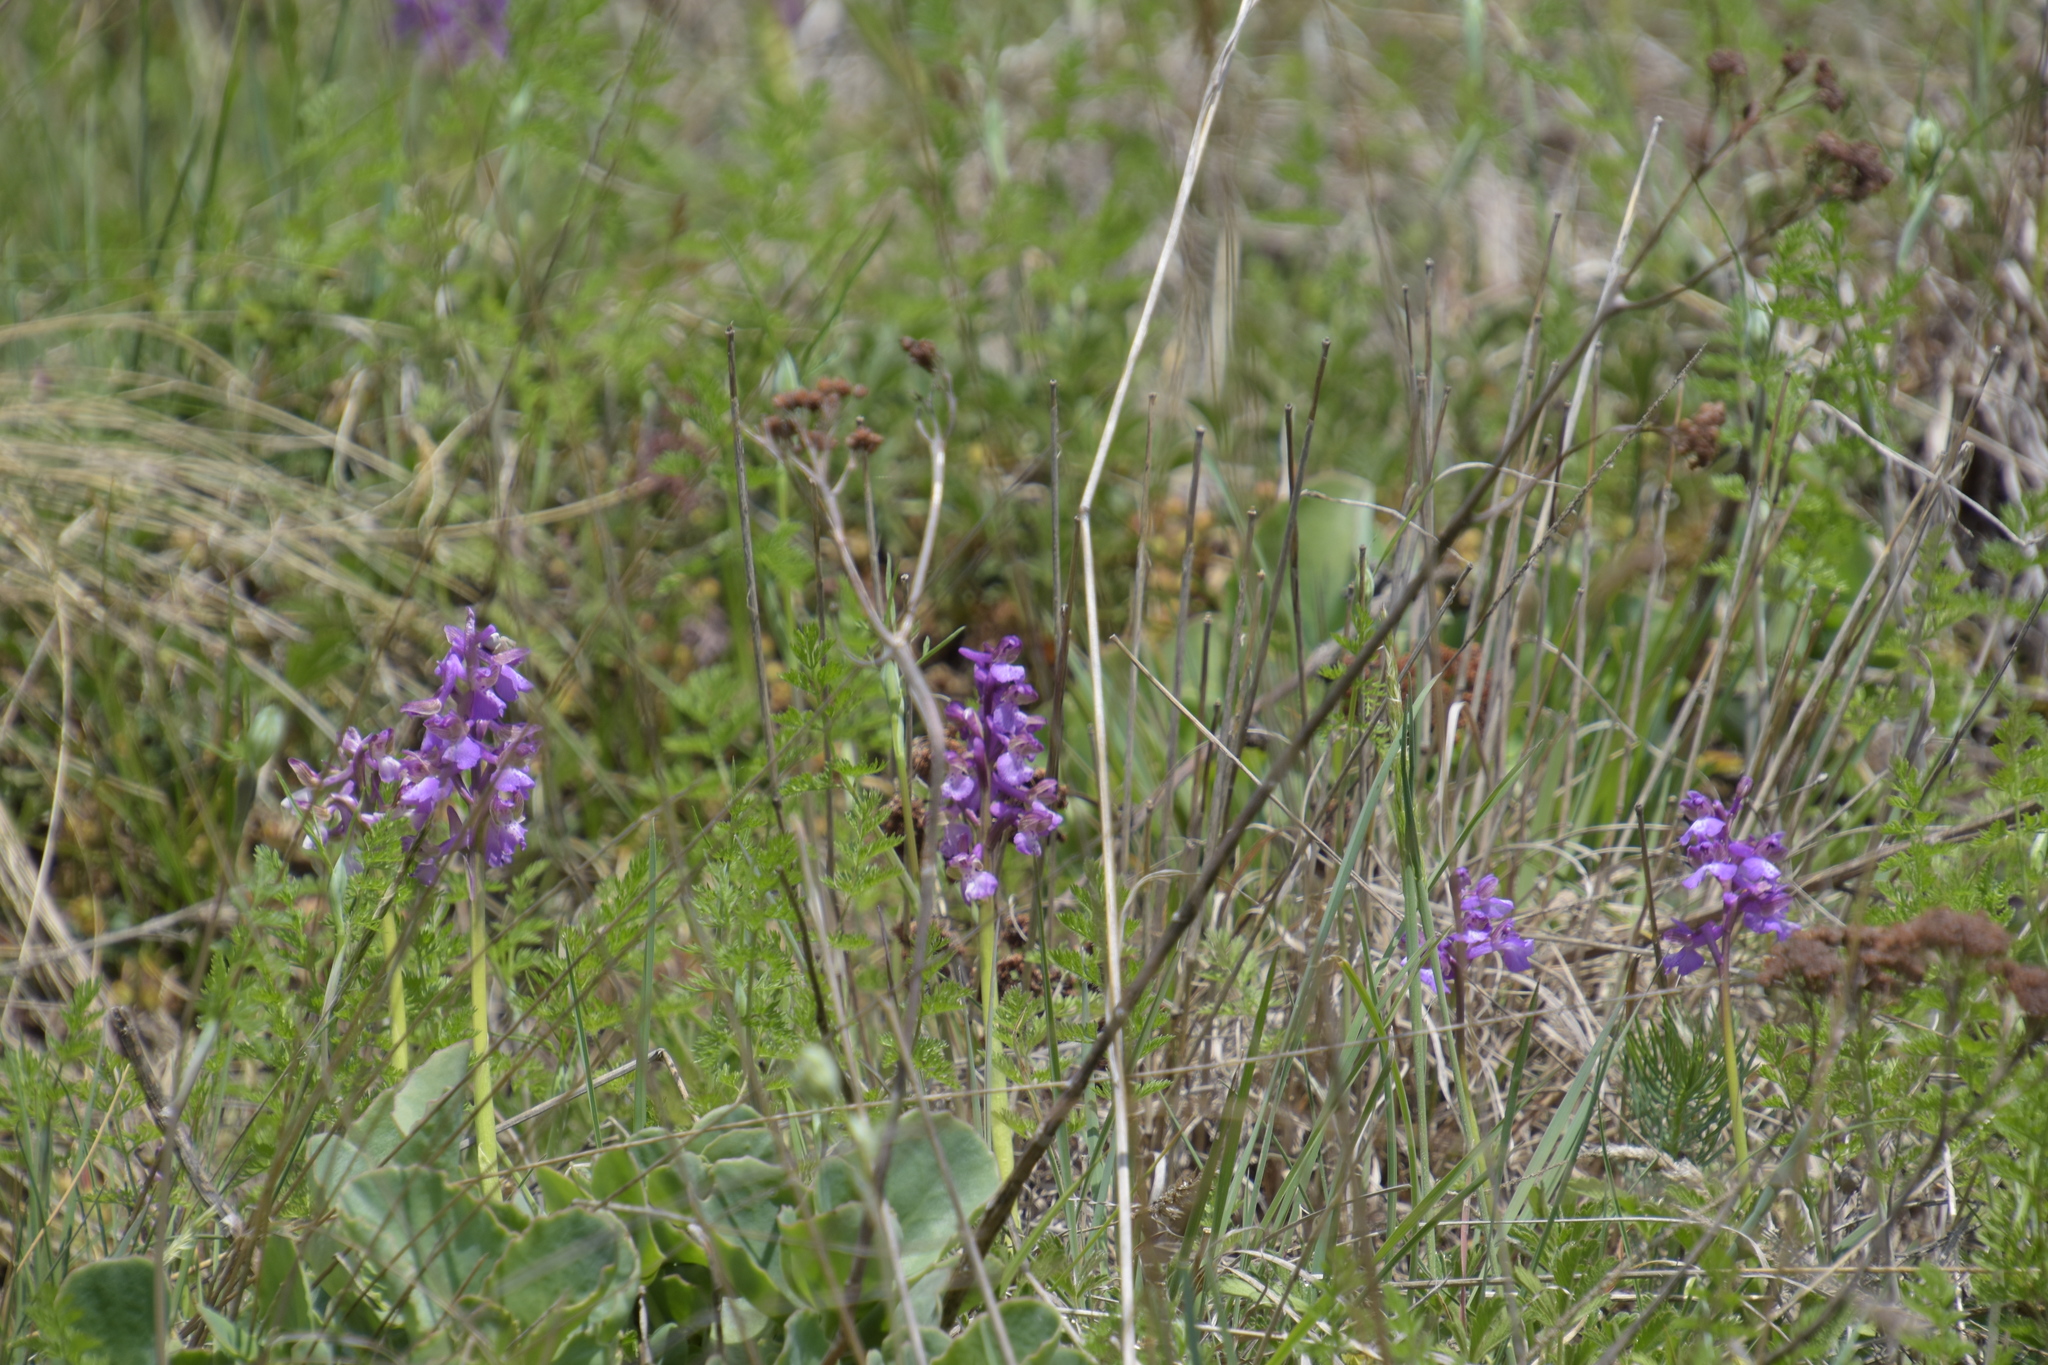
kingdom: Plantae
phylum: Tracheophyta
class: Liliopsida
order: Asparagales
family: Orchidaceae
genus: Anacamptis
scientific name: Anacamptis morio
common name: Green-winged orchid
